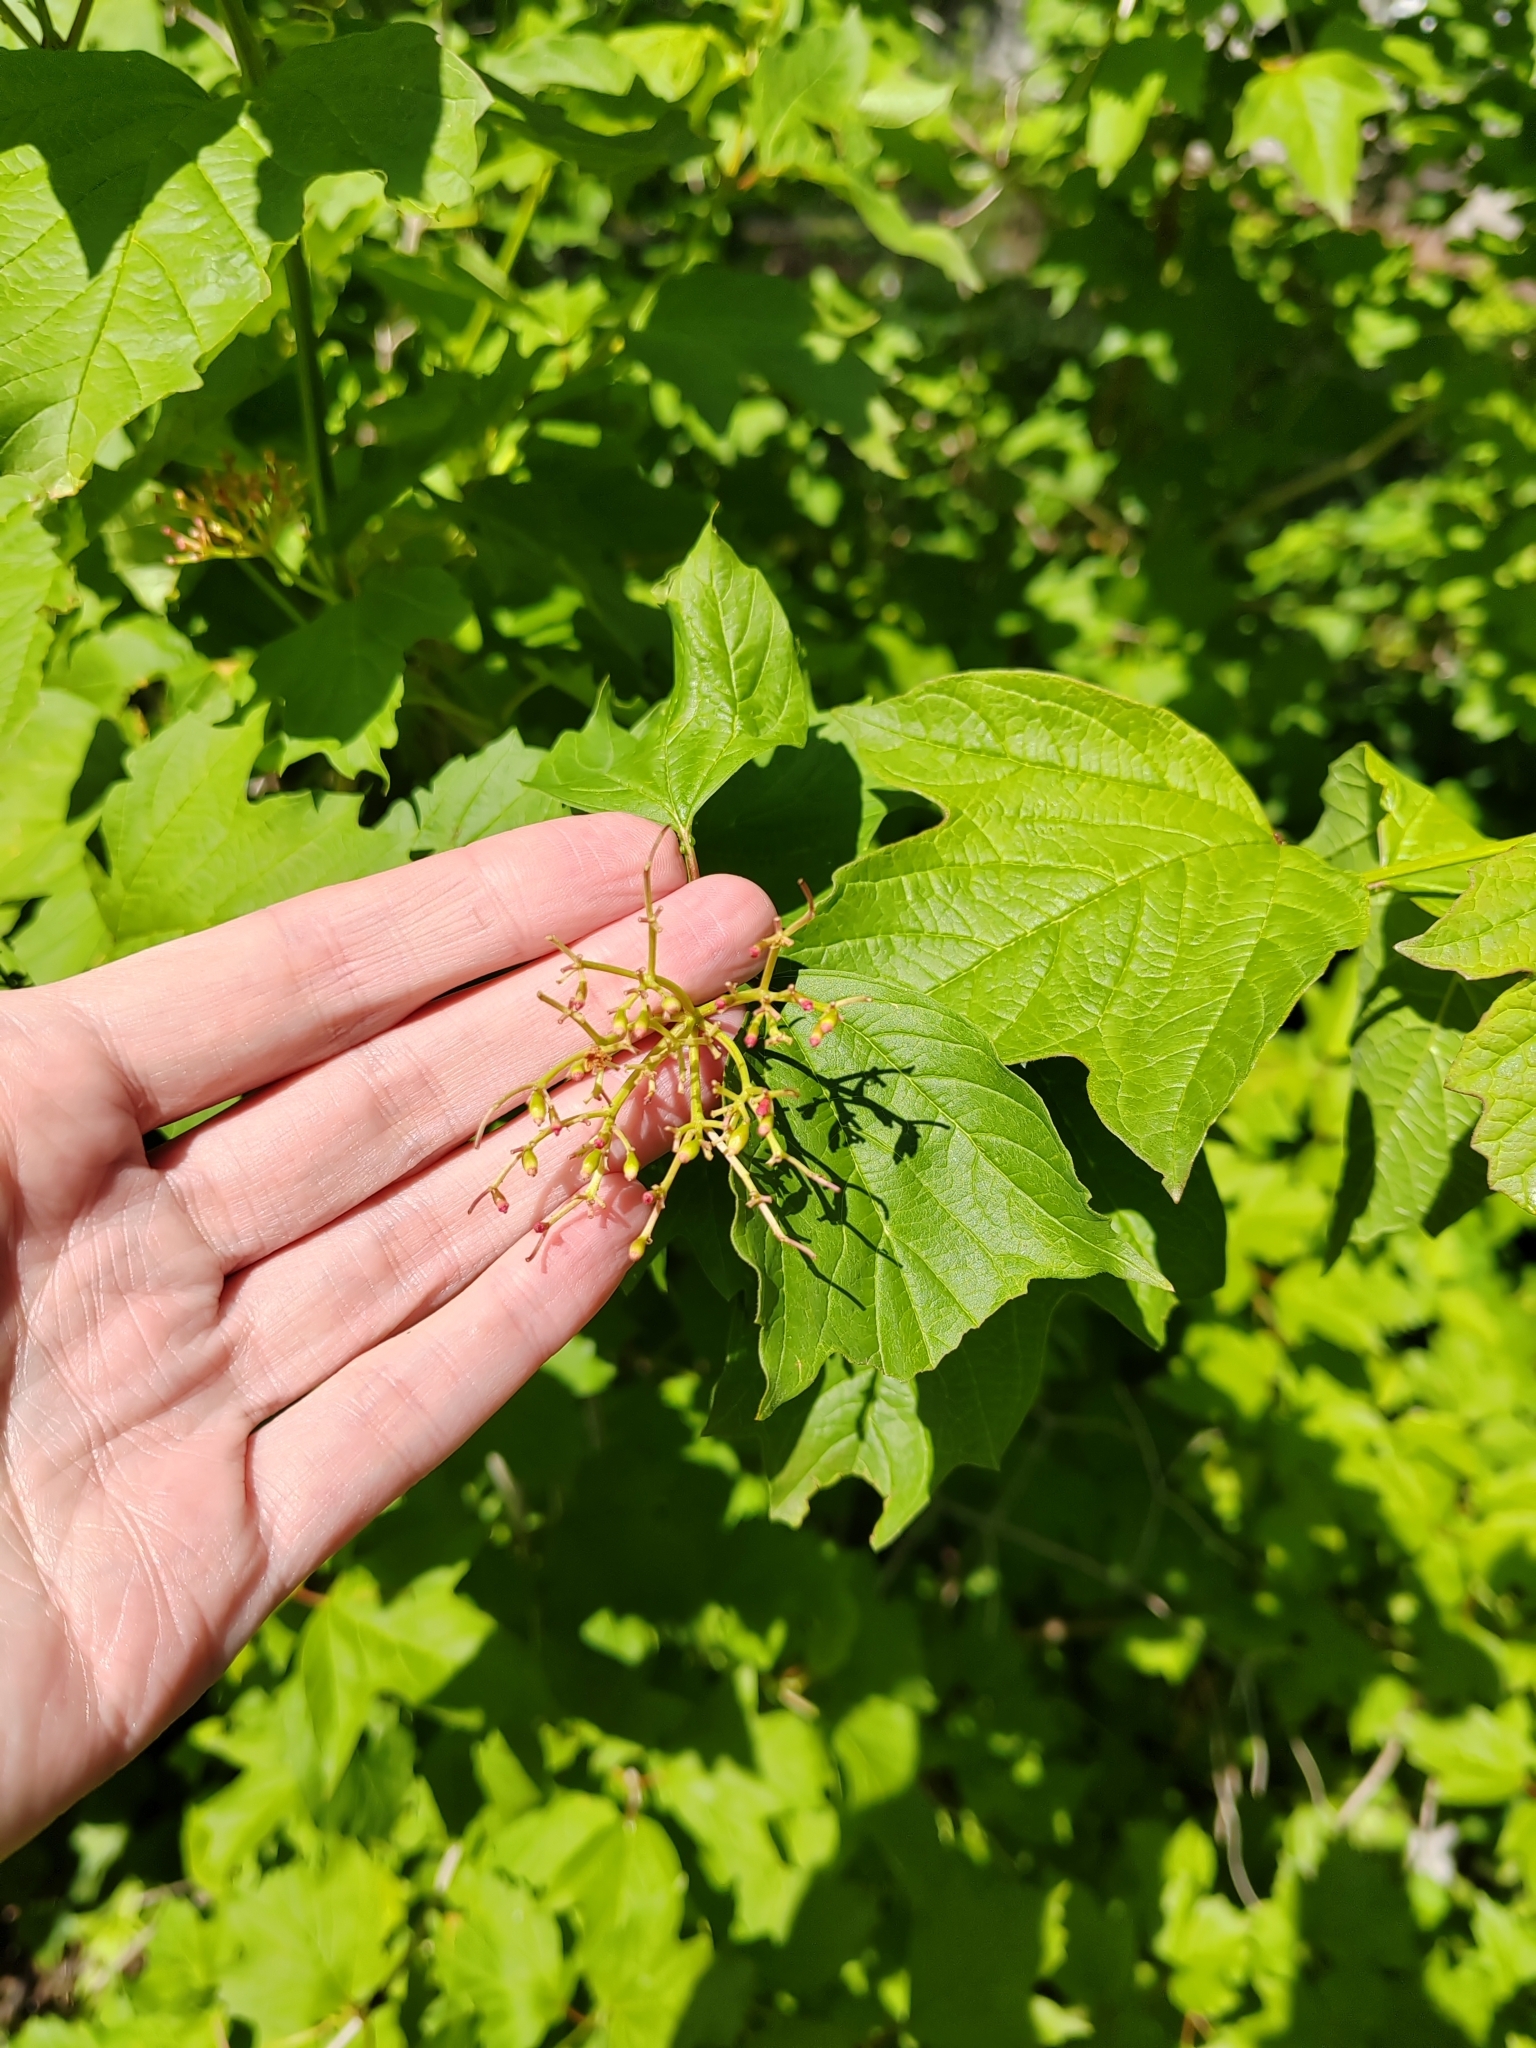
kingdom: Plantae
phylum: Tracheophyta
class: Magnoliopsida
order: Dipsacales
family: Viburnaceae
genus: Viburnum
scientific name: Viburnum opulus
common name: Guelder-rose
